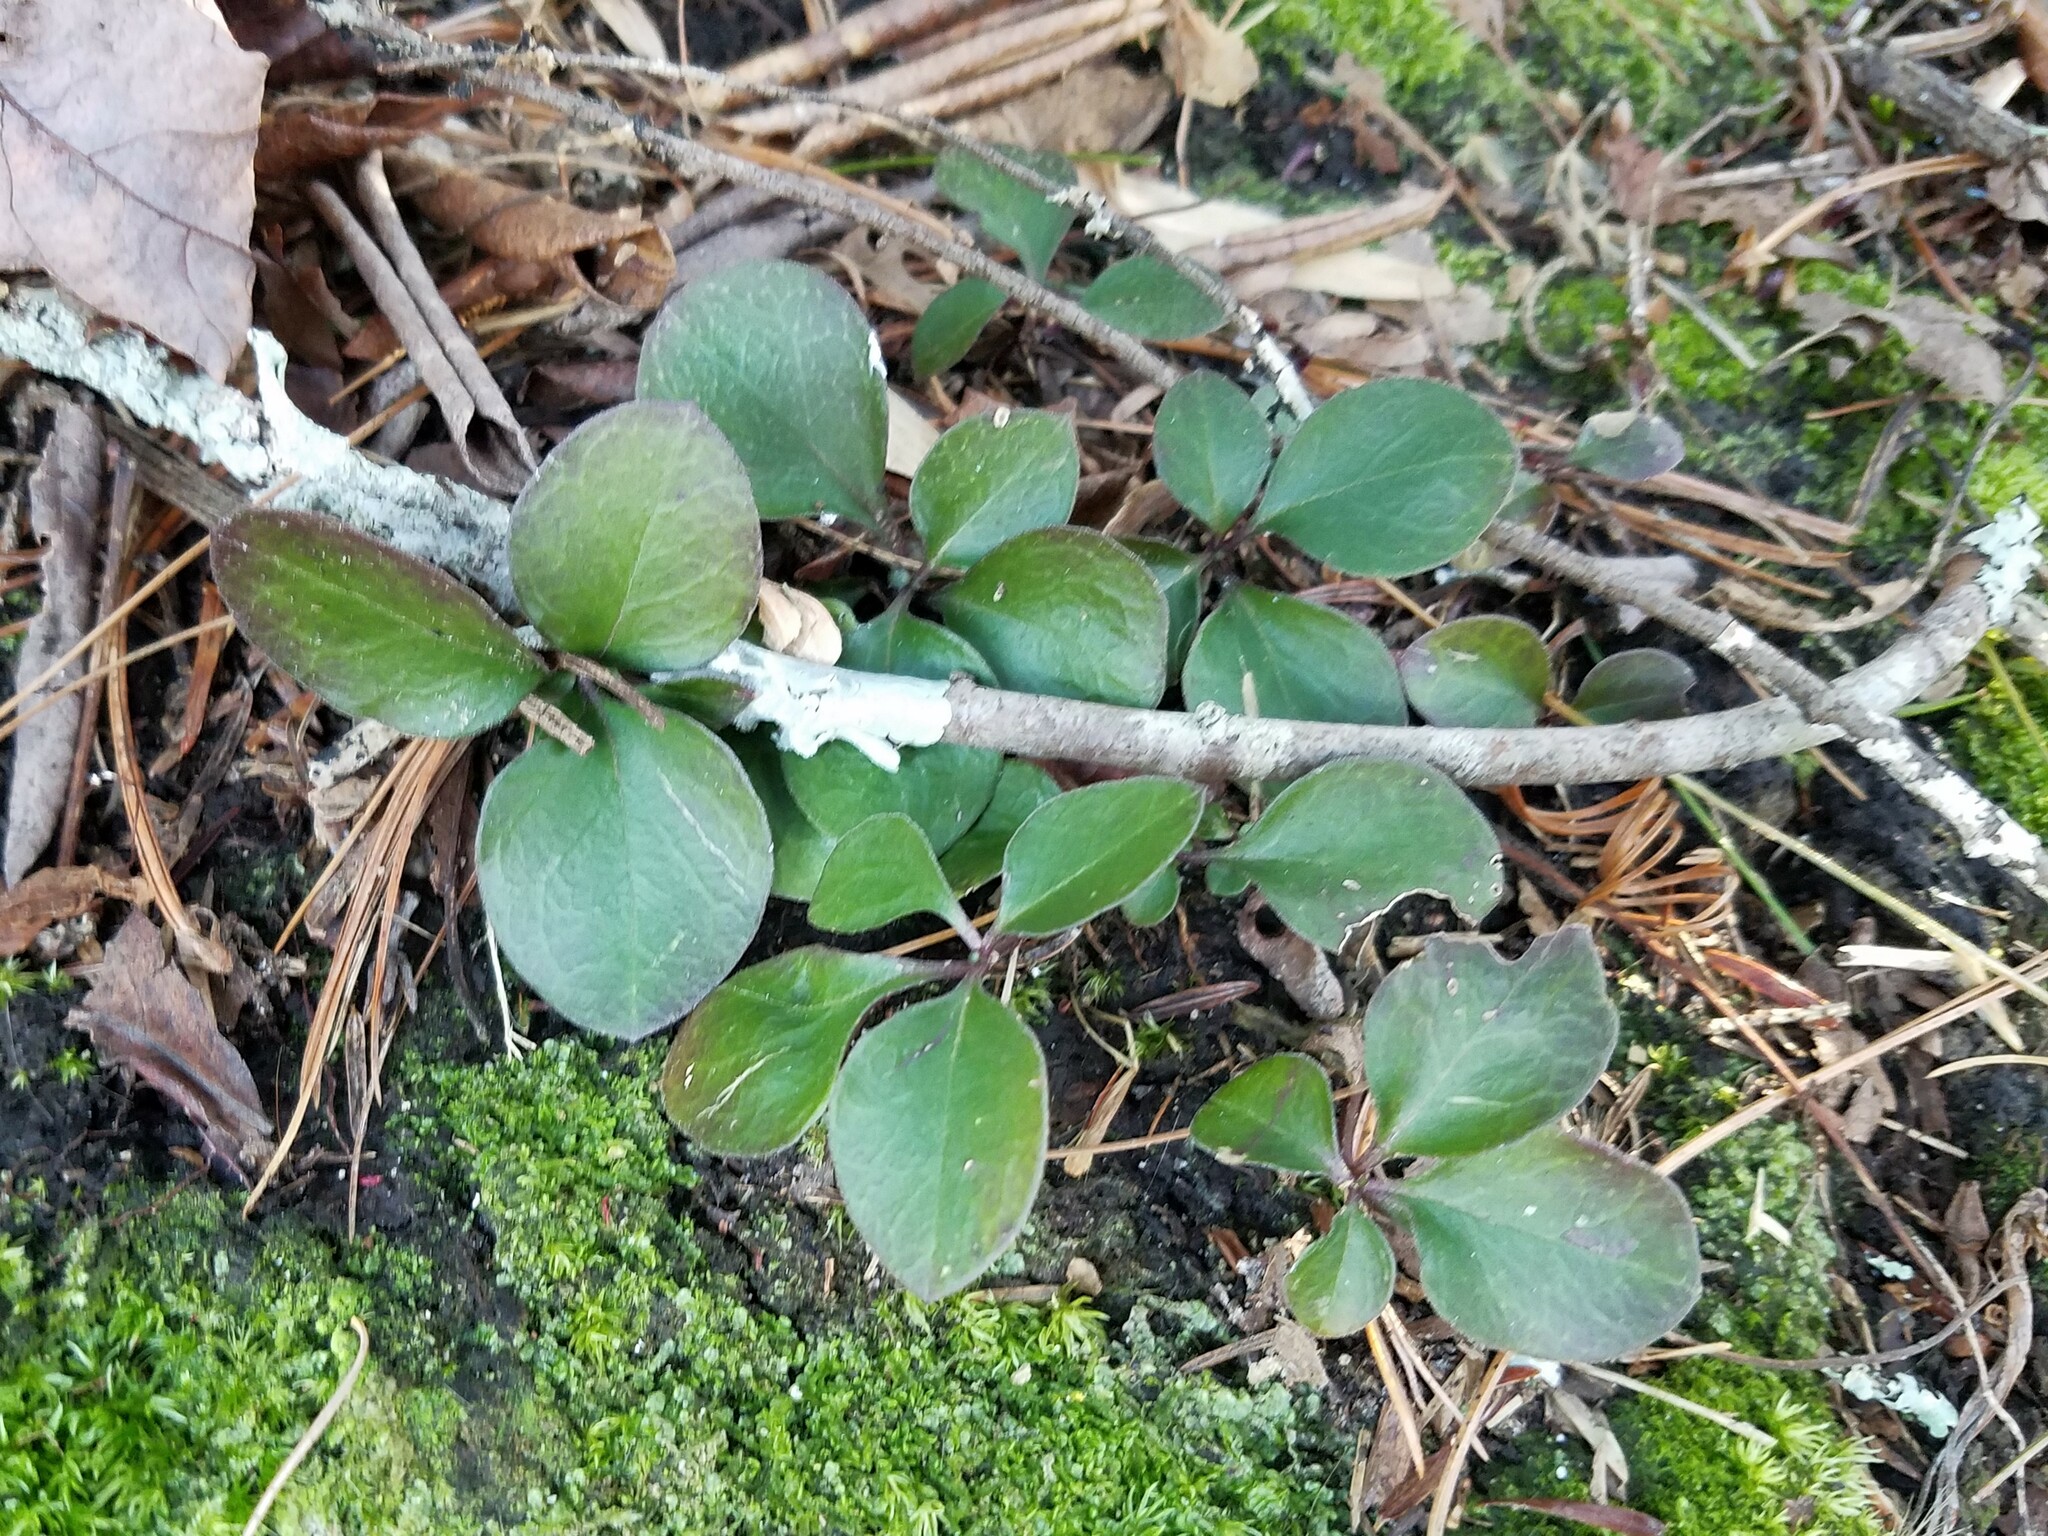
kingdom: Plantae
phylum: Tracheophyta
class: Magnoliopsida
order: Fabales
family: Polygalaceae
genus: Polygaloides
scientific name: Polygaloides paucifolia
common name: Bird-on-the-wing
